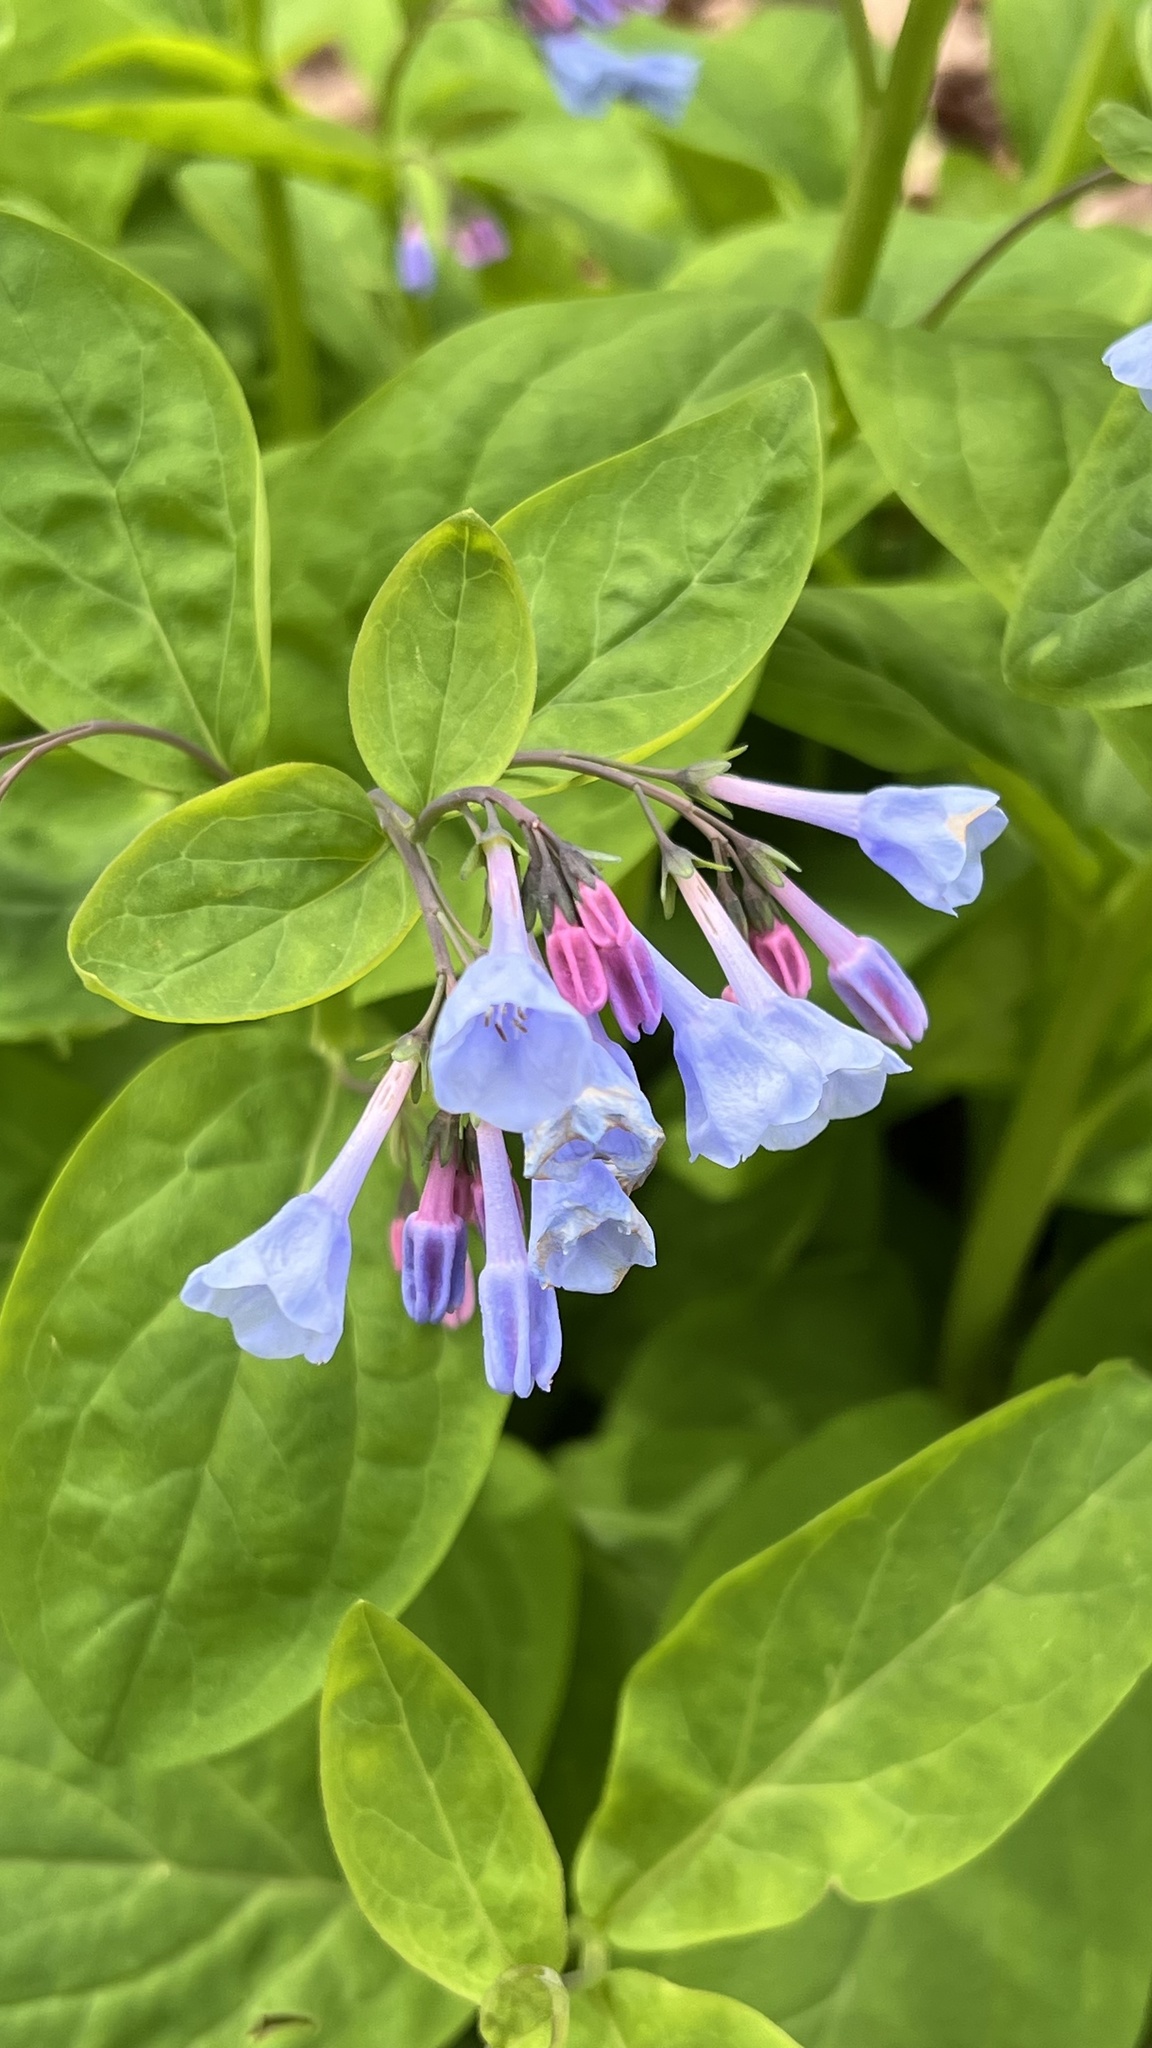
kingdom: Plantae
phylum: Tracheophyta
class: Magnoliopsida
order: Boraginales
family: Boraginaceae
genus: Mertensia
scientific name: Mertensia virginica
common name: Virginia bluebells
